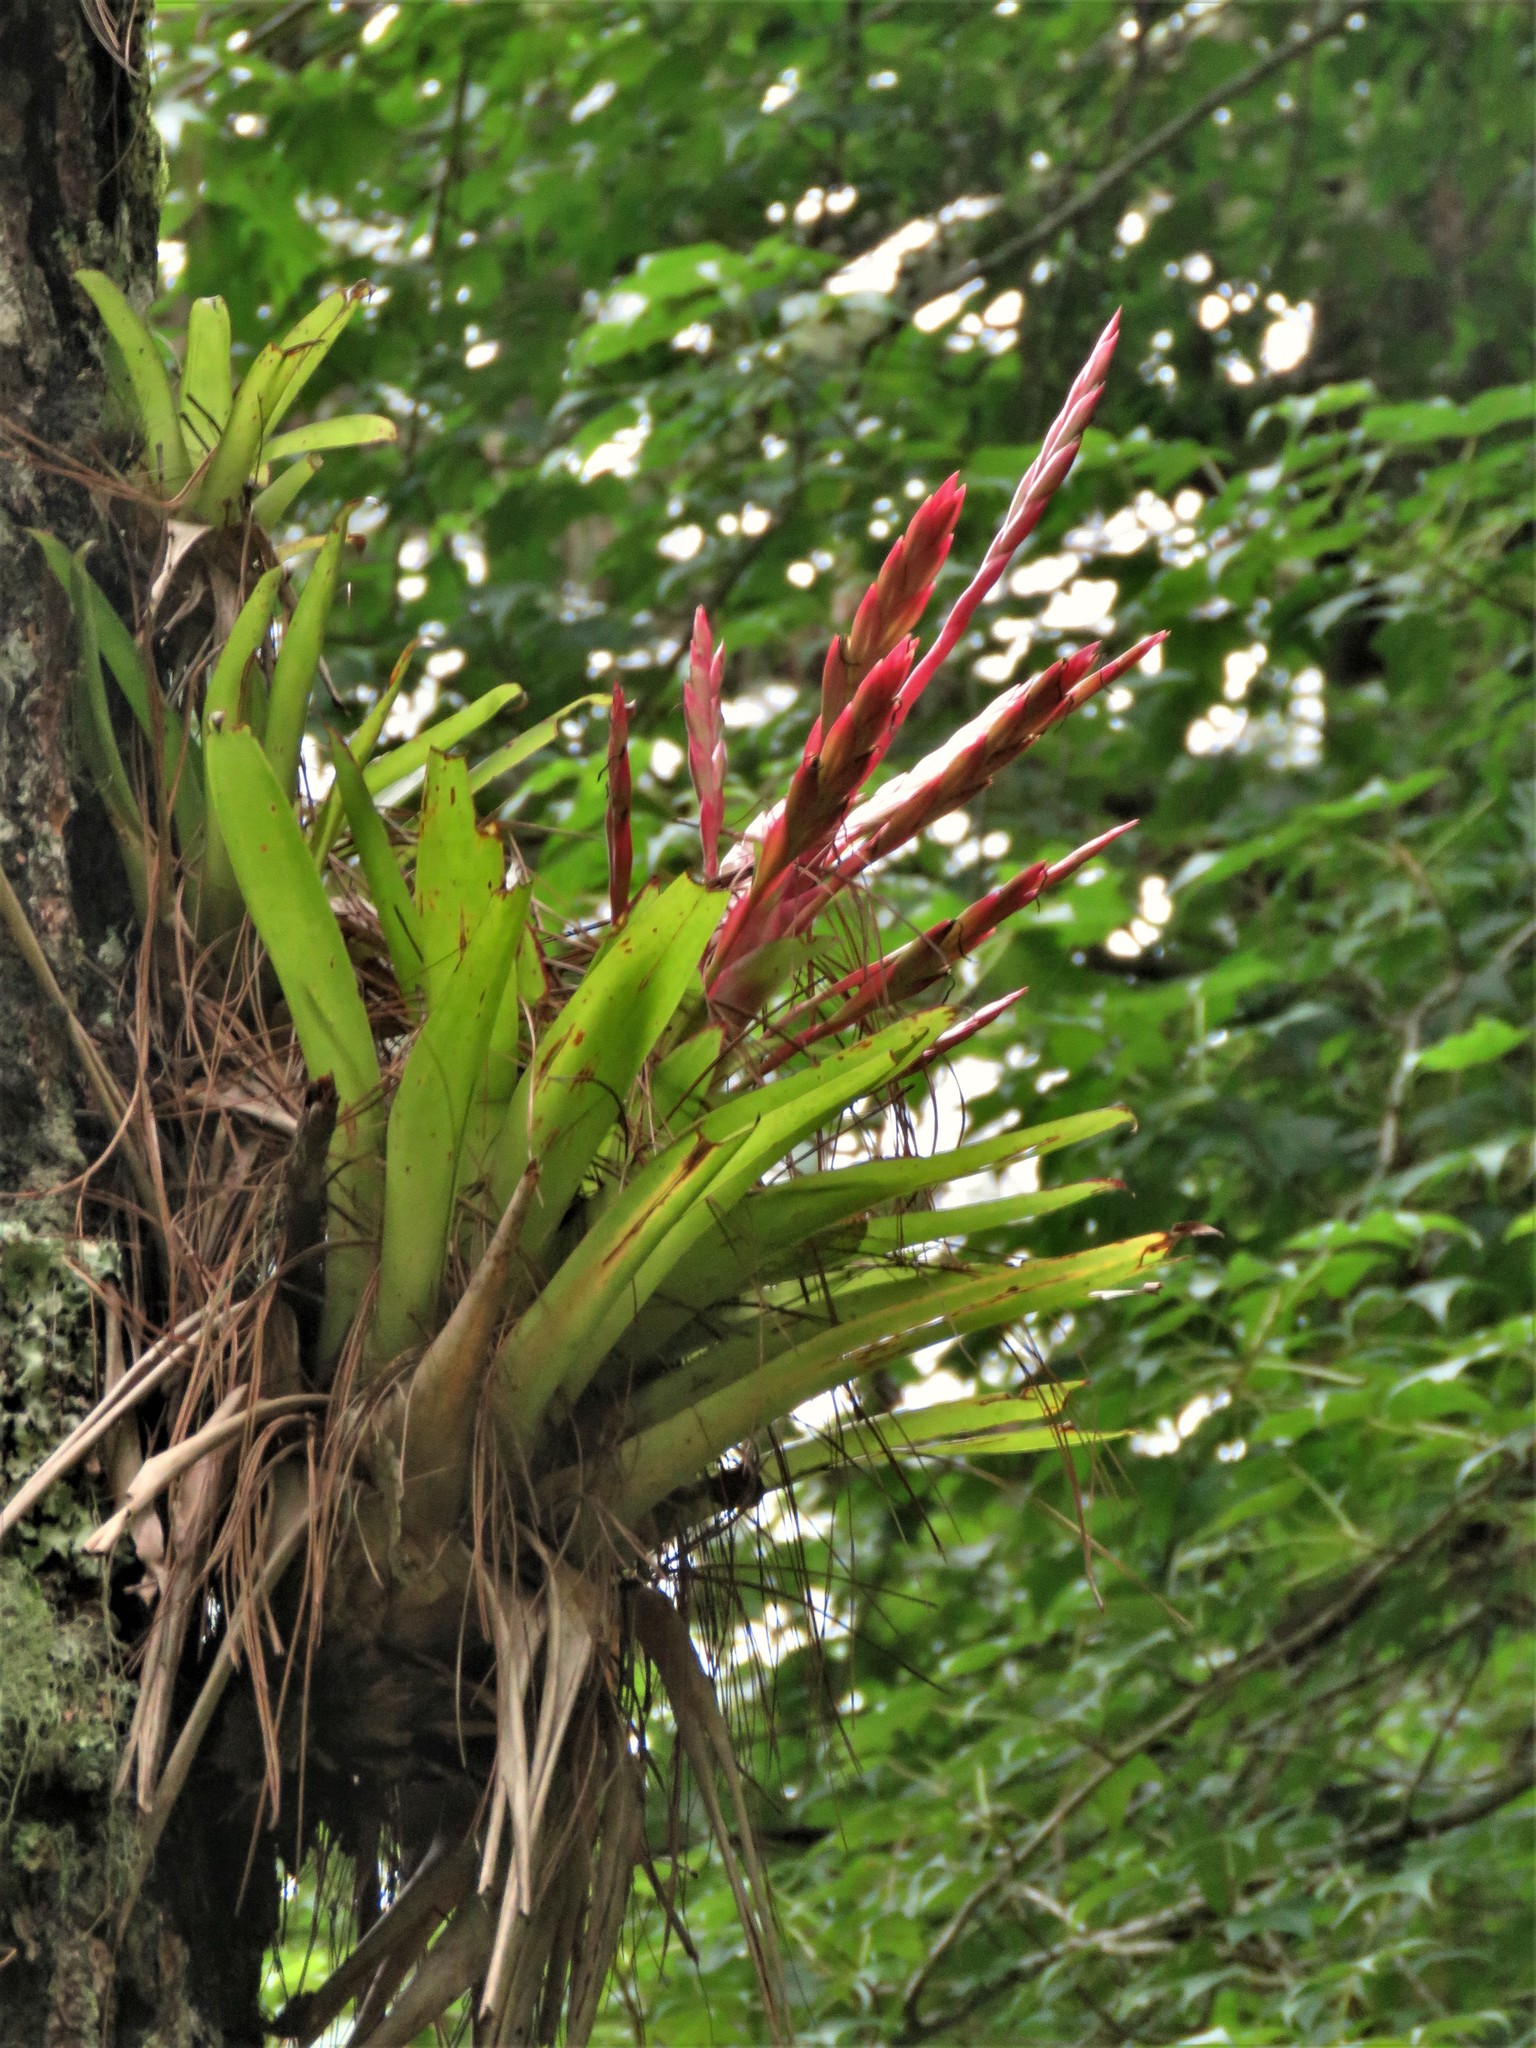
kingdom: Plantae
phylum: Tracheophyta
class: Liliopsida
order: Poales
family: Bromeliaceae
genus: Tillandsia
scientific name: Tillandsia deppeana
